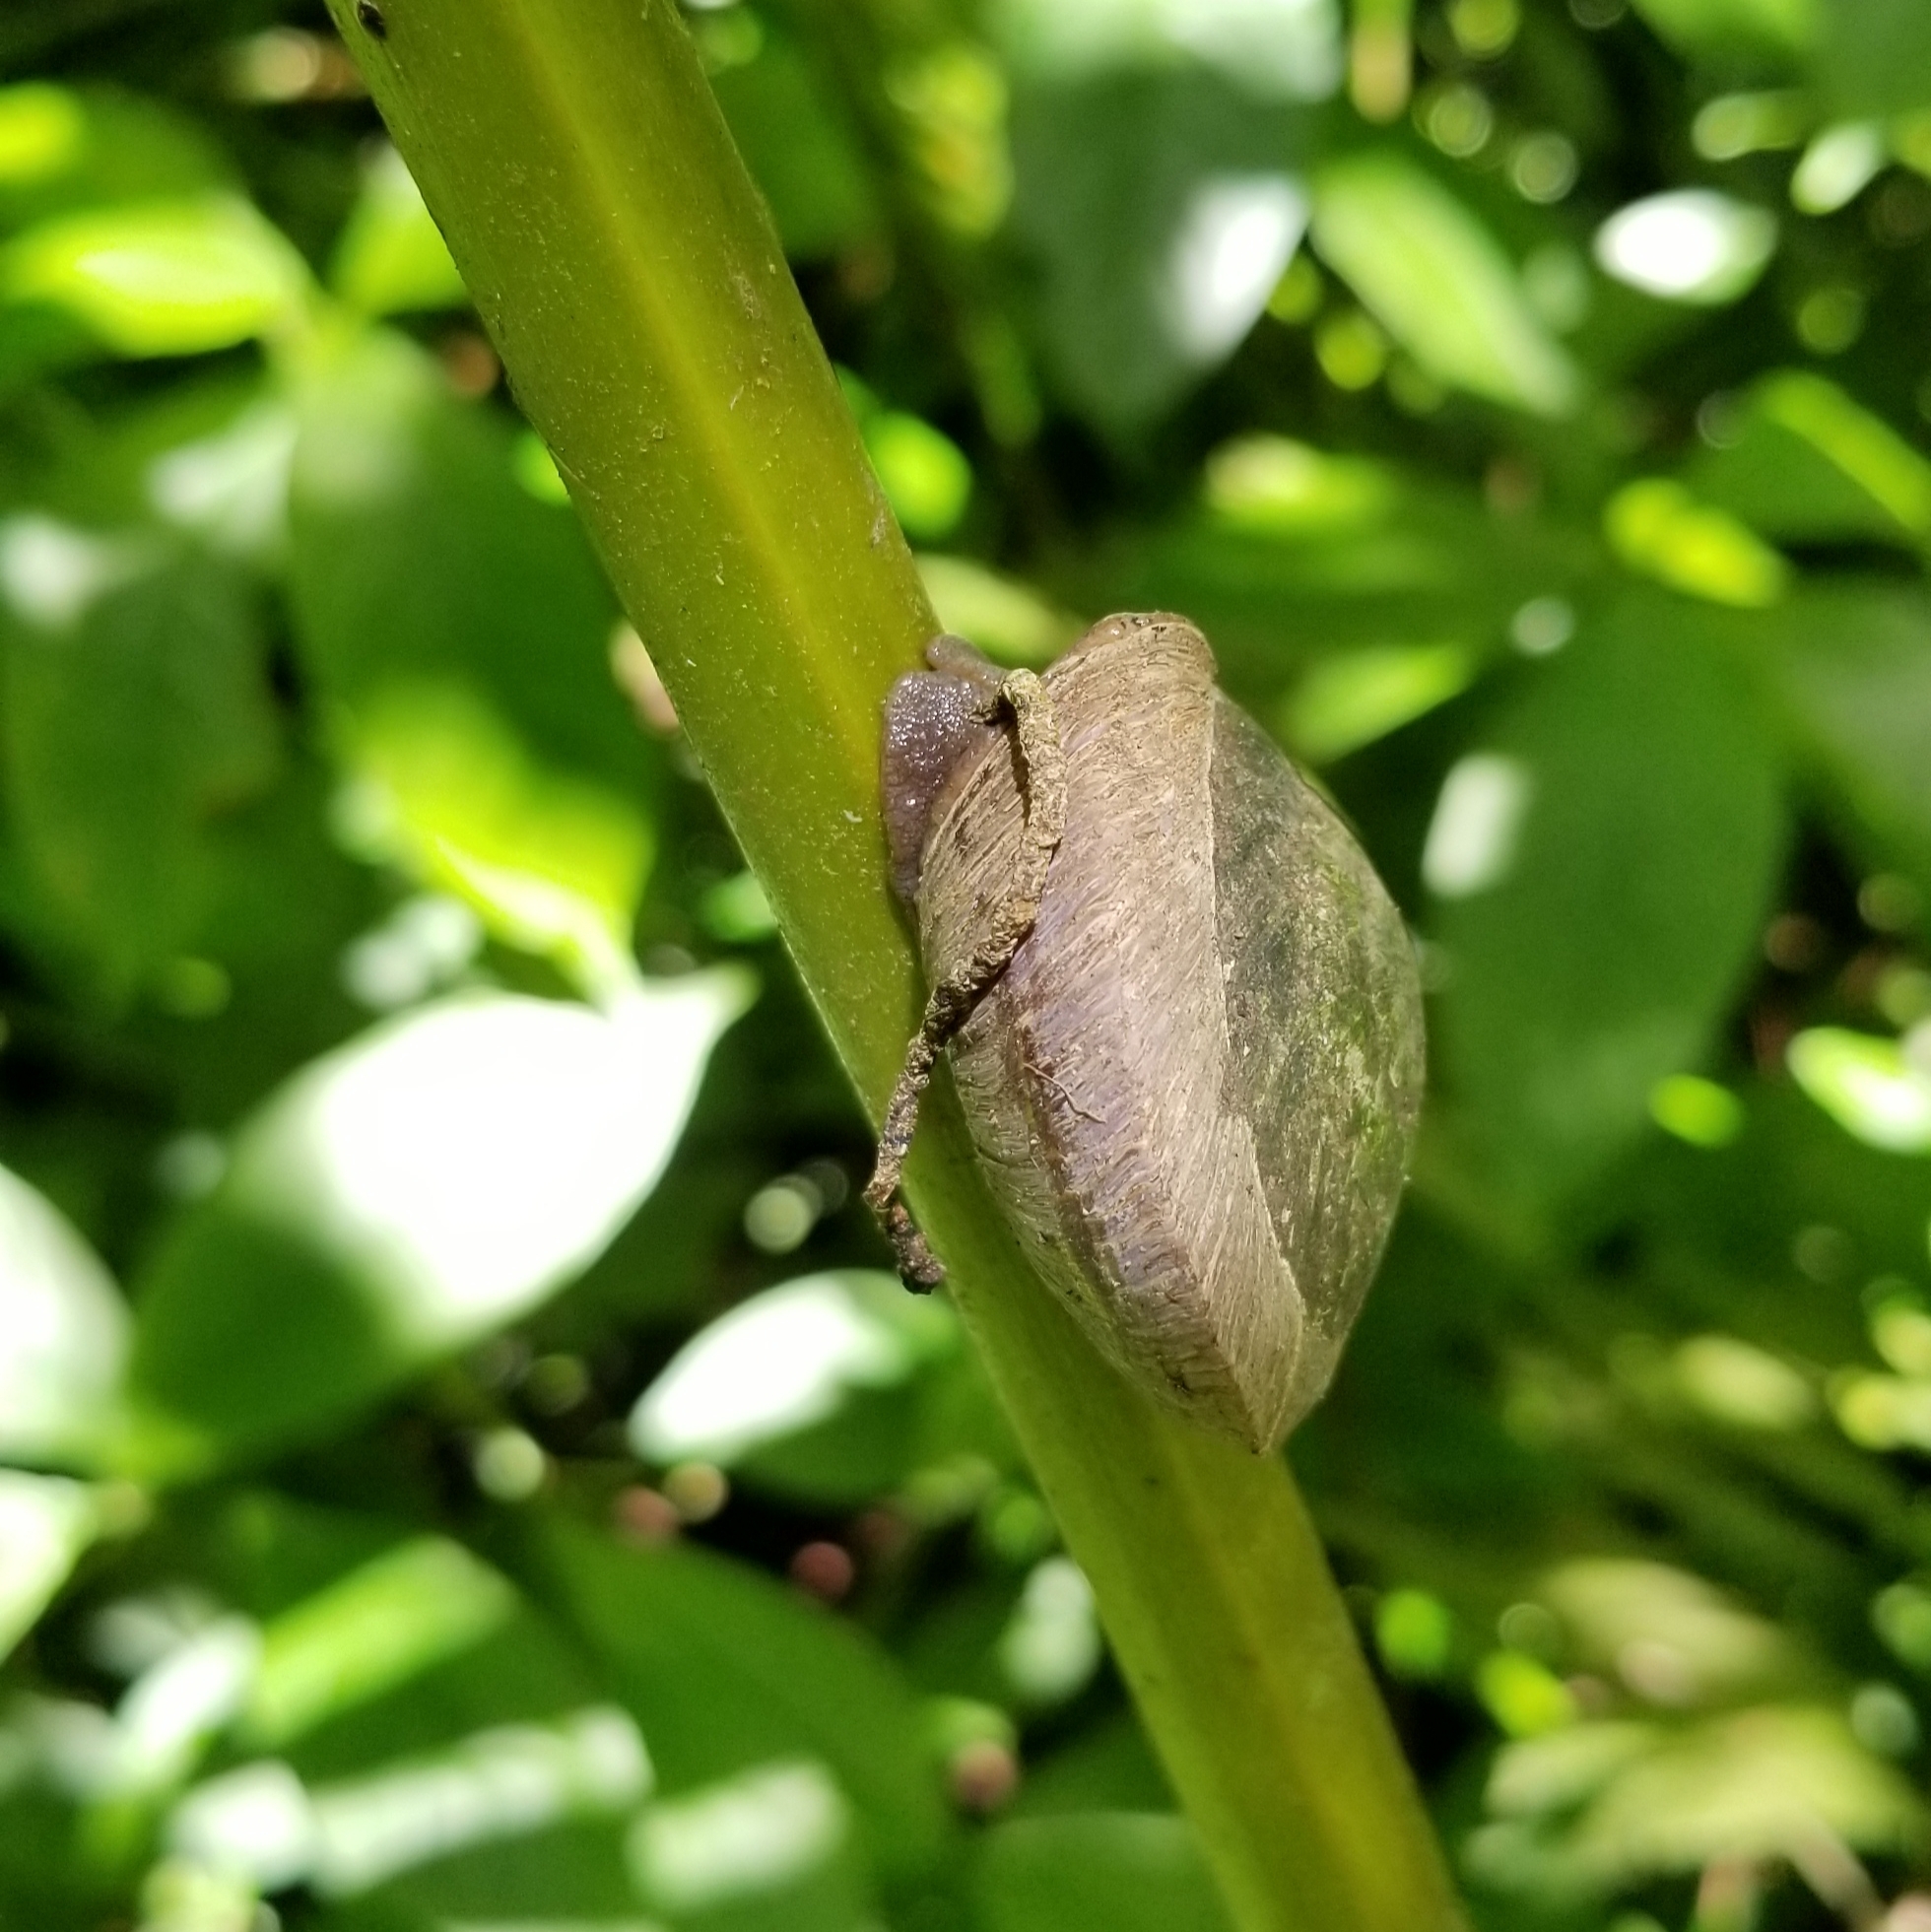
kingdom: Animalia
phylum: Mollusca
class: Gastropoda
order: Stylommatophora
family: Solaropsidae
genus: Caracolus
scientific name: Caracolus carocolla
